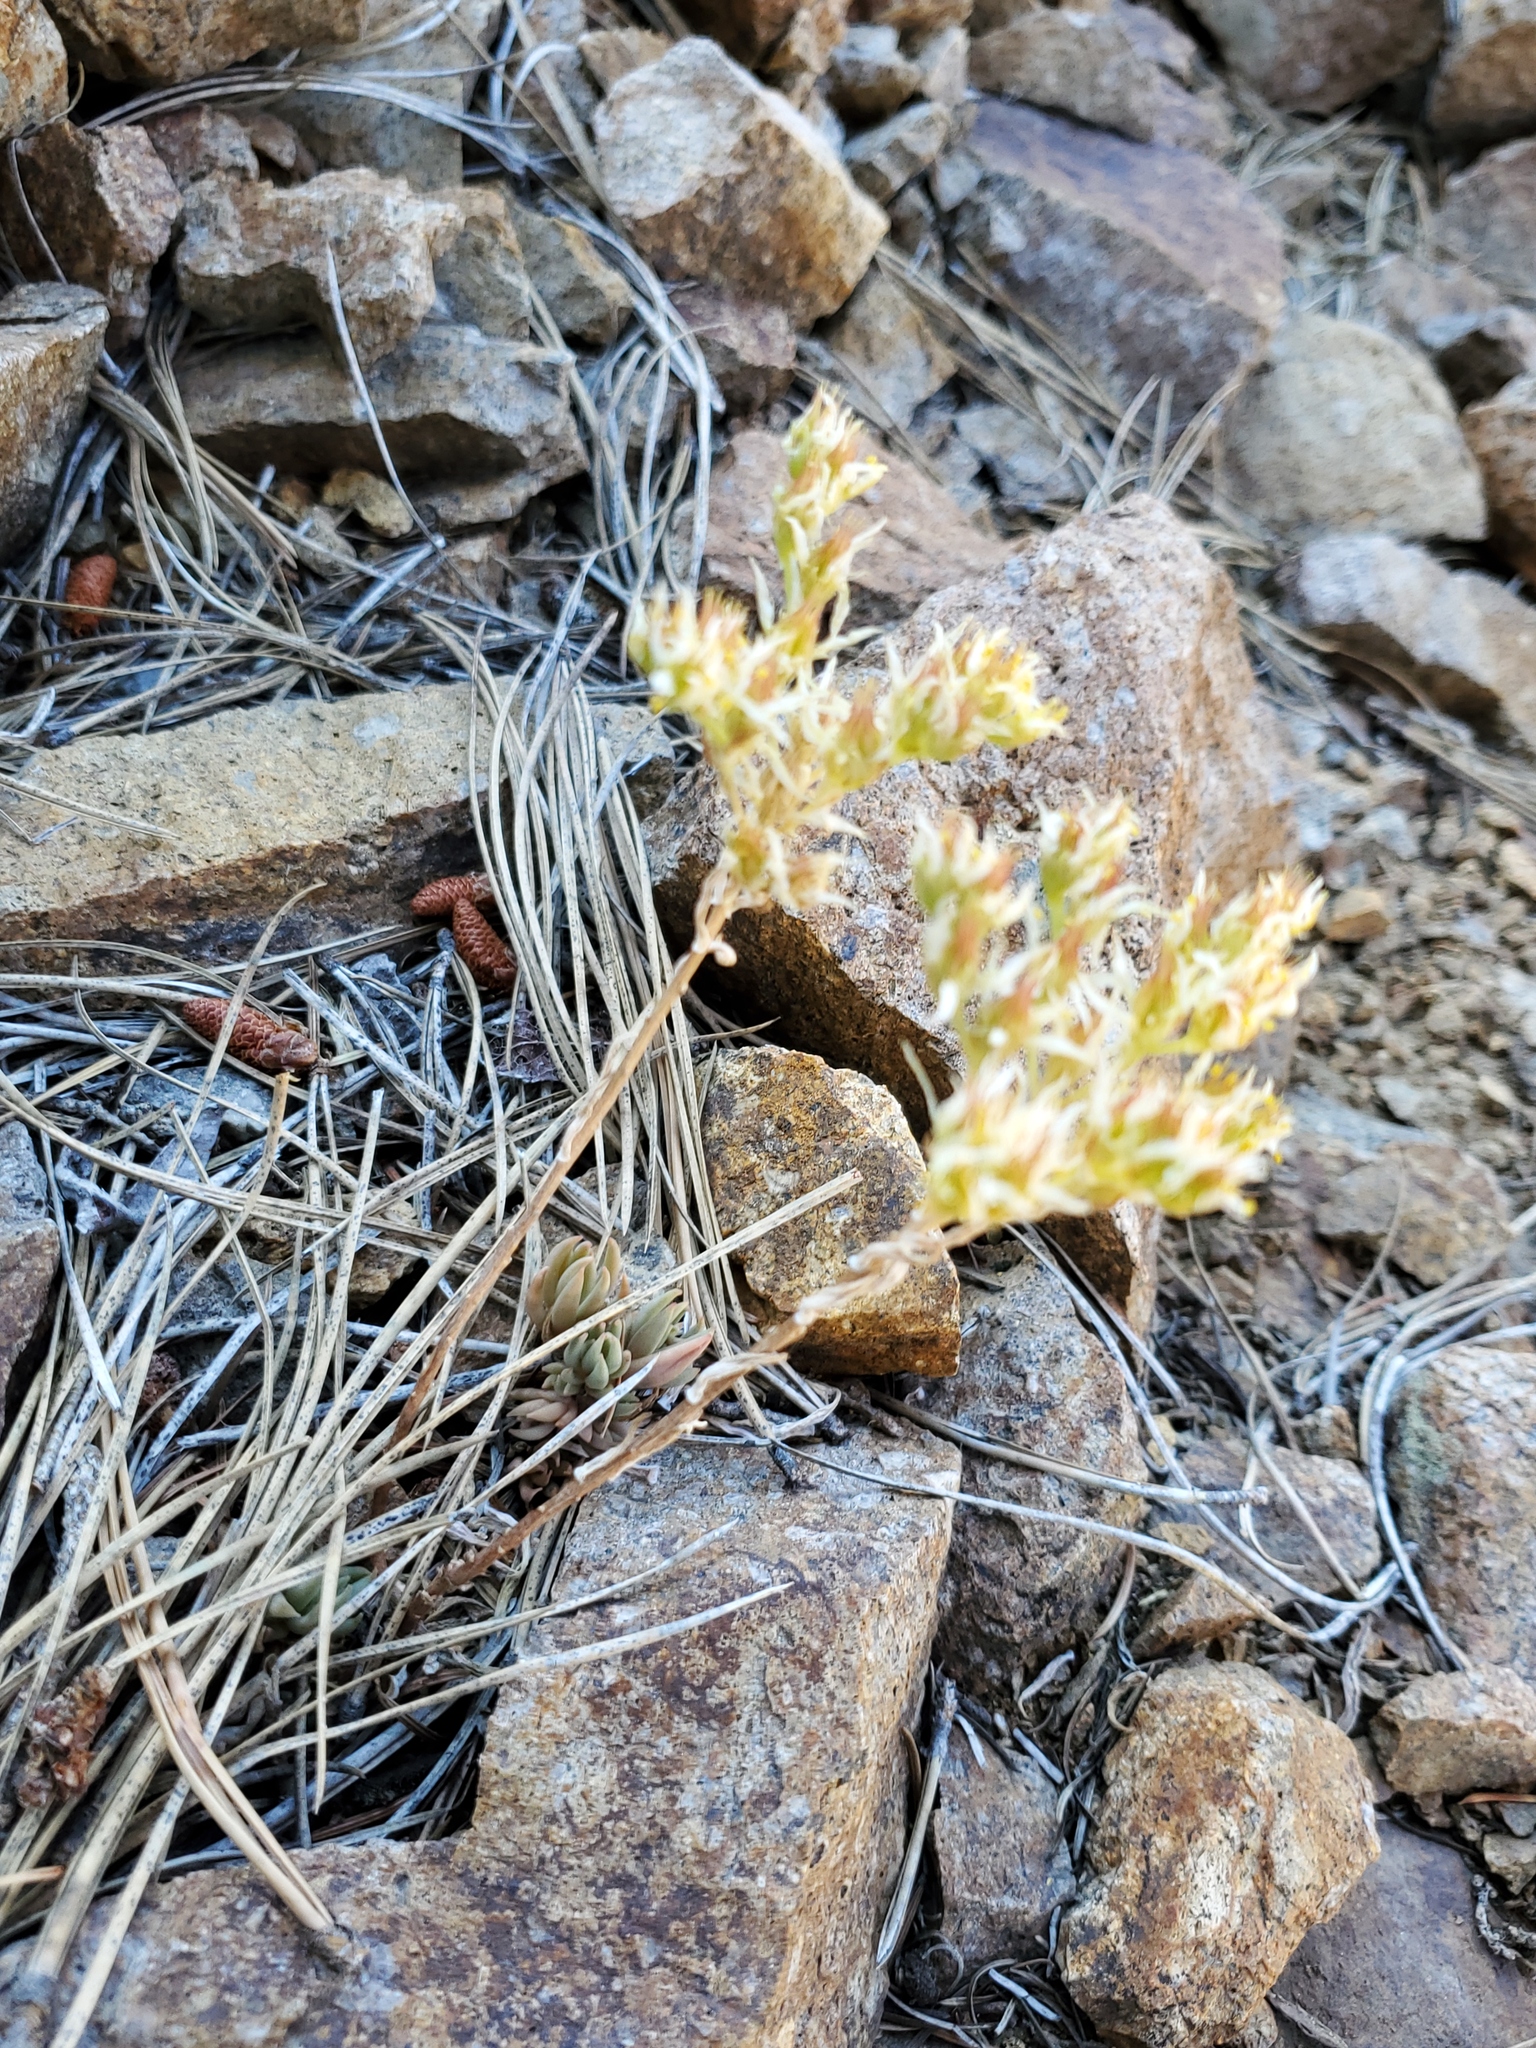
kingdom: Plantae
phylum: Tracheophyta
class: Magnoliopsida
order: Saxifragales
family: Crassulaceae
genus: Sedum
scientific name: Sedum lanceolatum
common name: Common stonecrop
